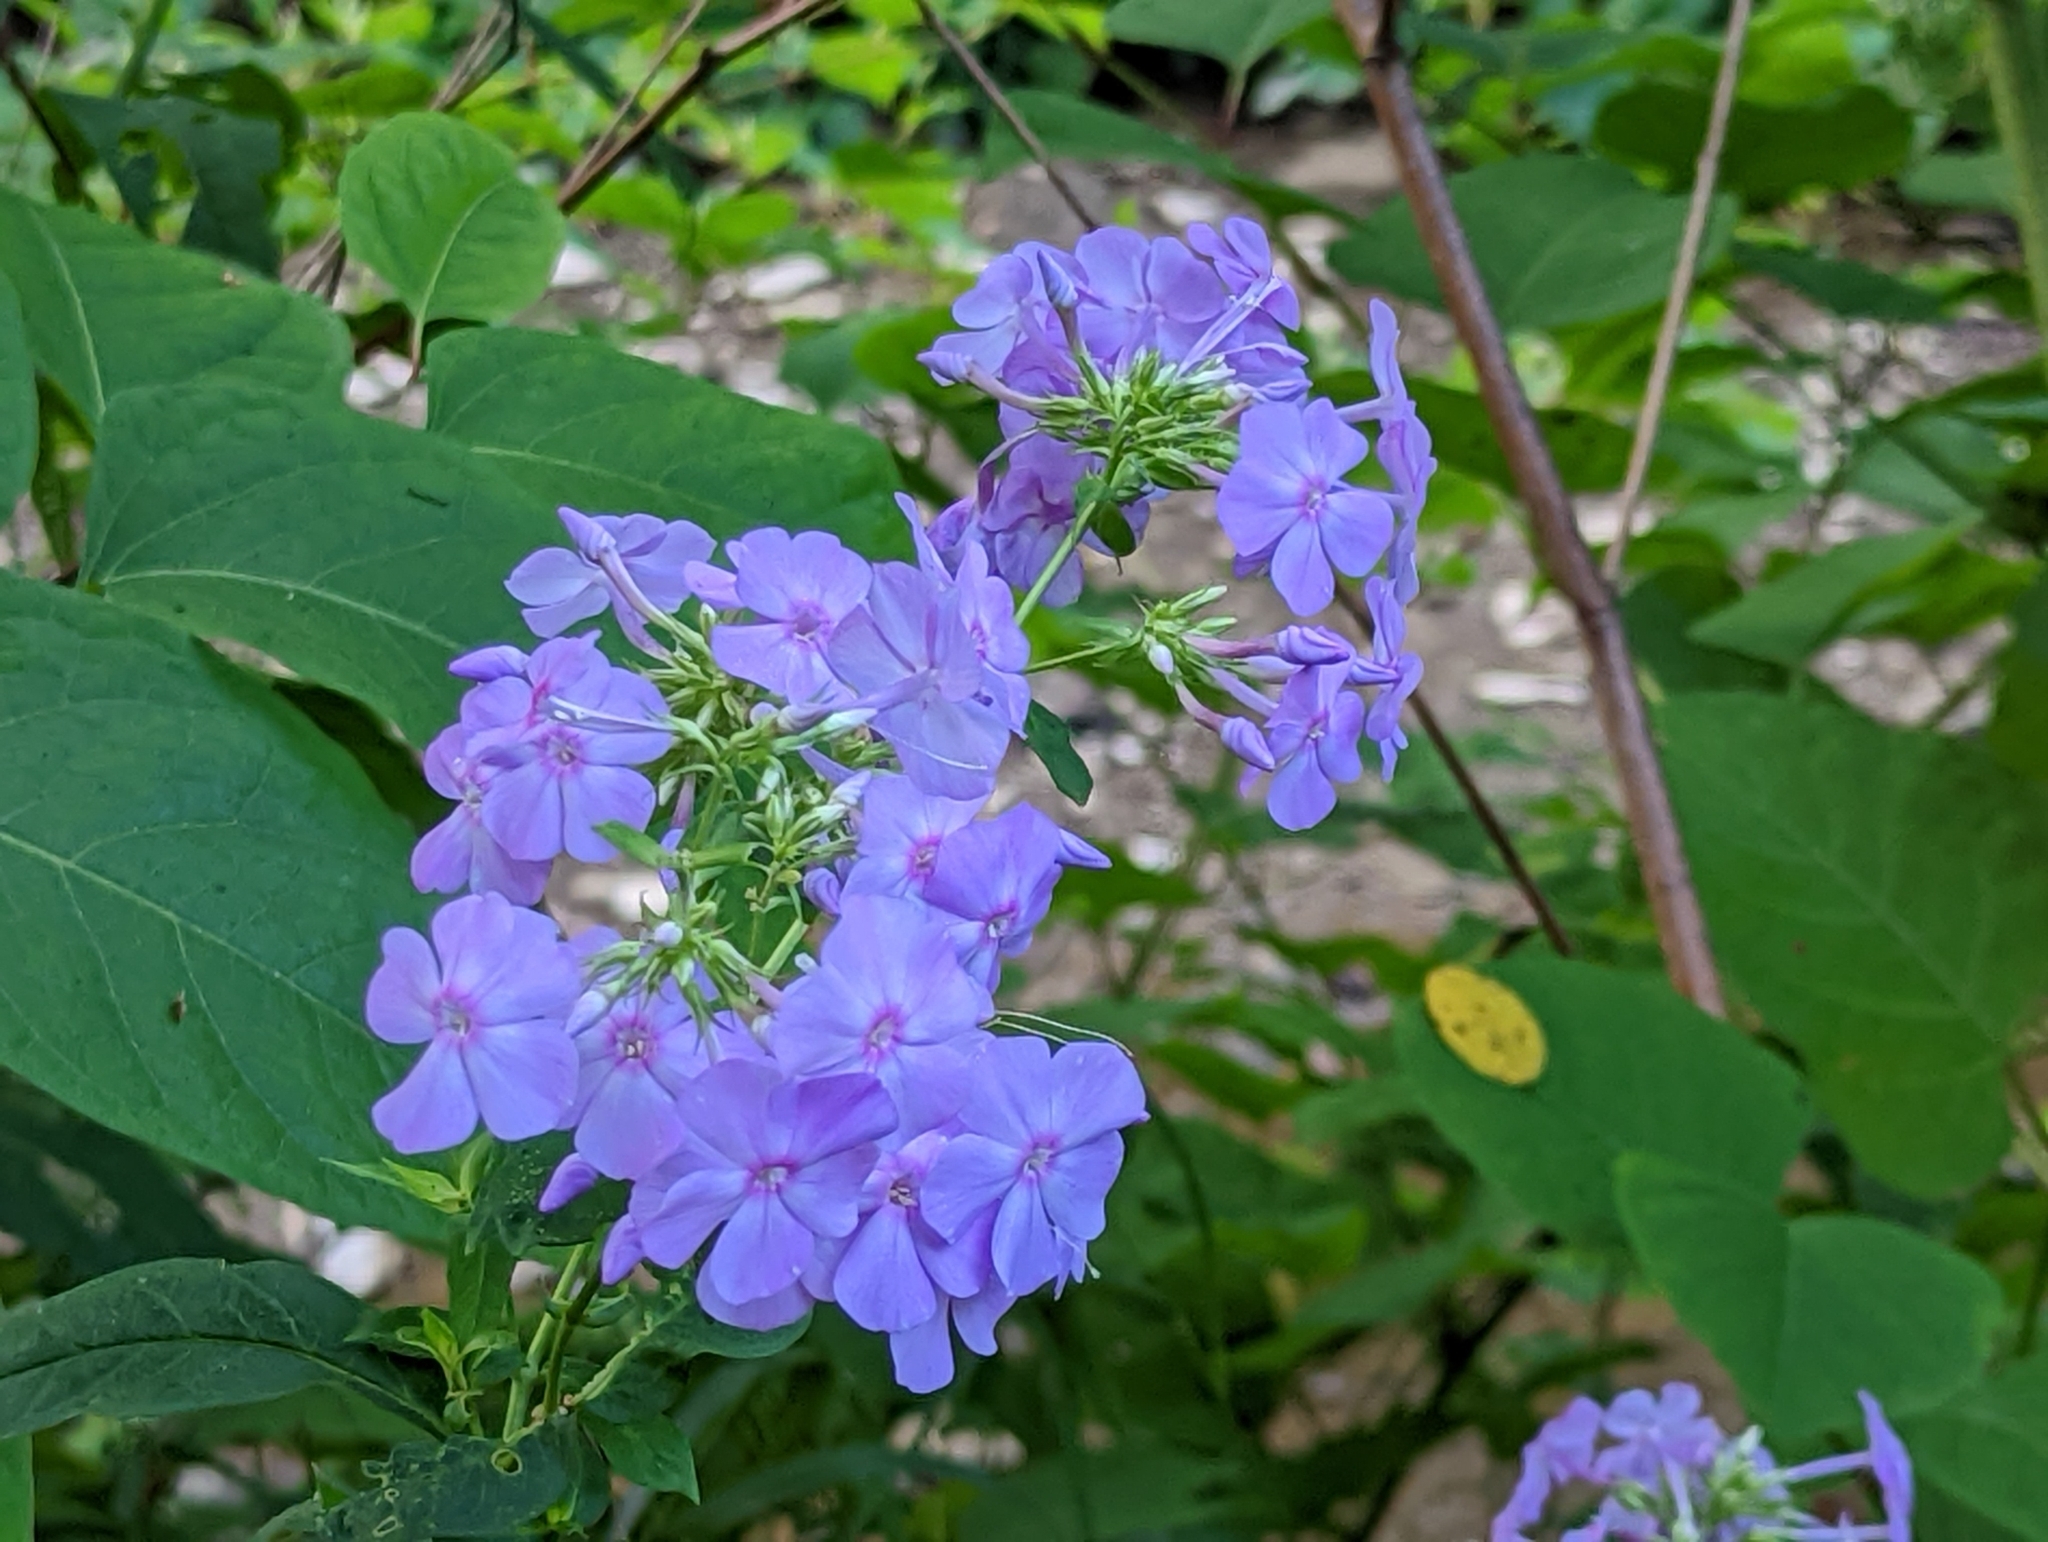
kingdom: Plantae
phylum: Tracheophyta
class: Magnoliopsida
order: Ericales
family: Polemoniaceae
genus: Phlox
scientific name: Phlox paniculata
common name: Fall phlox
